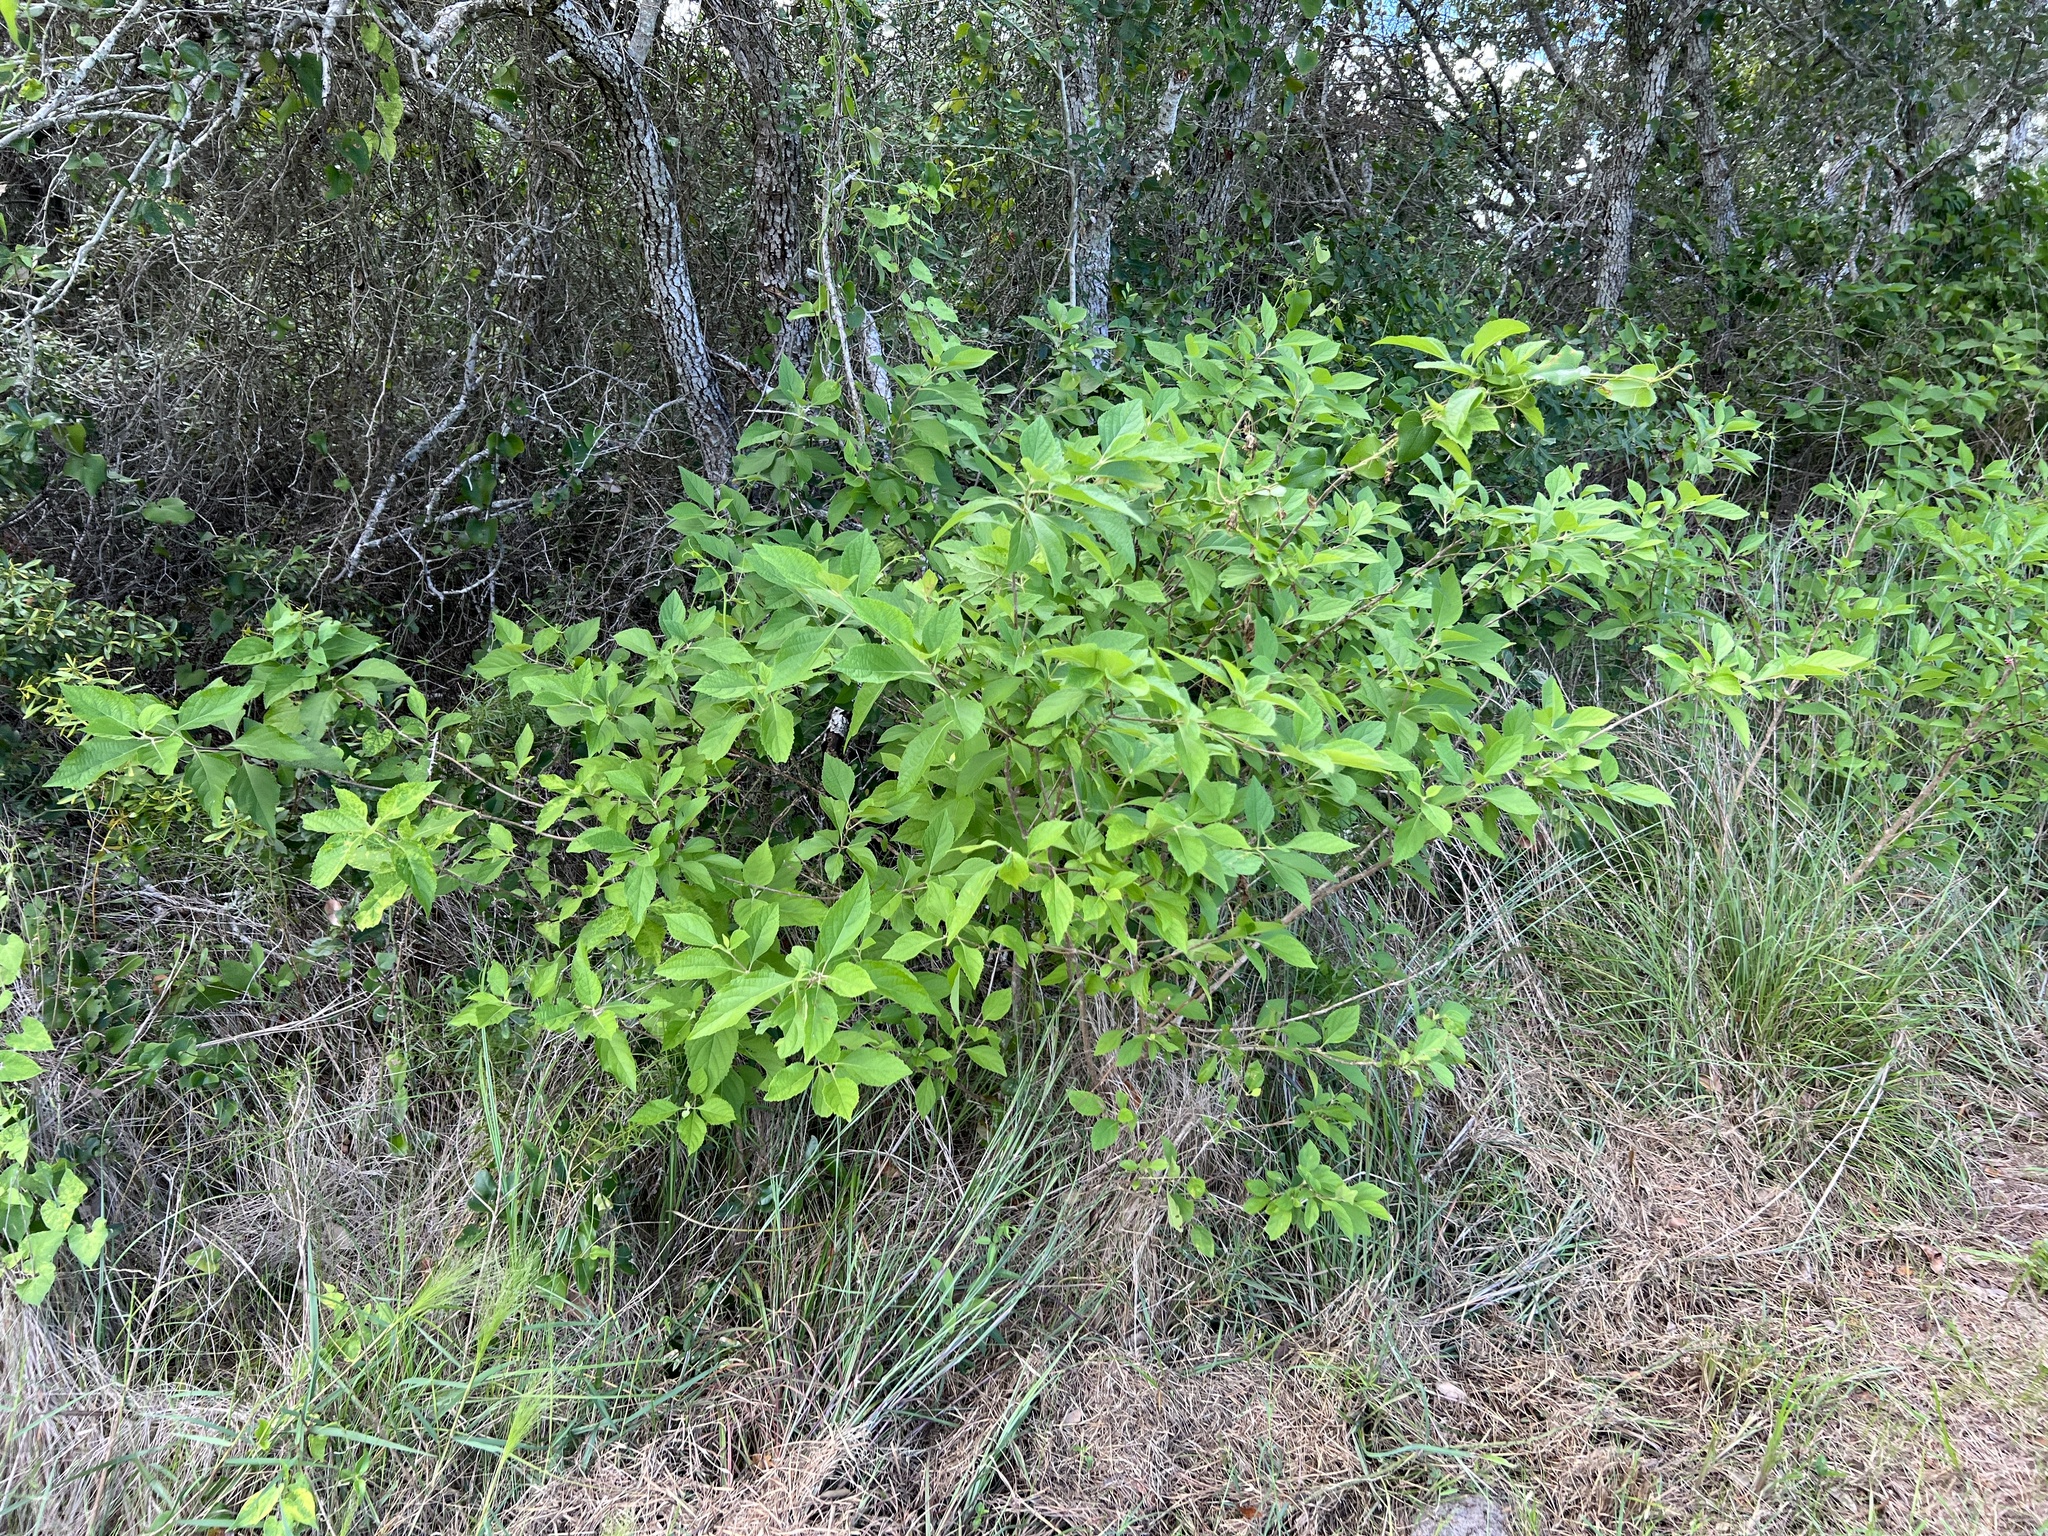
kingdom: Plantae
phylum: Tracheophyta
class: Magnoliopsida
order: Lamiales
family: Lamiaceae
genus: Callicarpa
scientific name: Callicarpa americana
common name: American beautyberry
